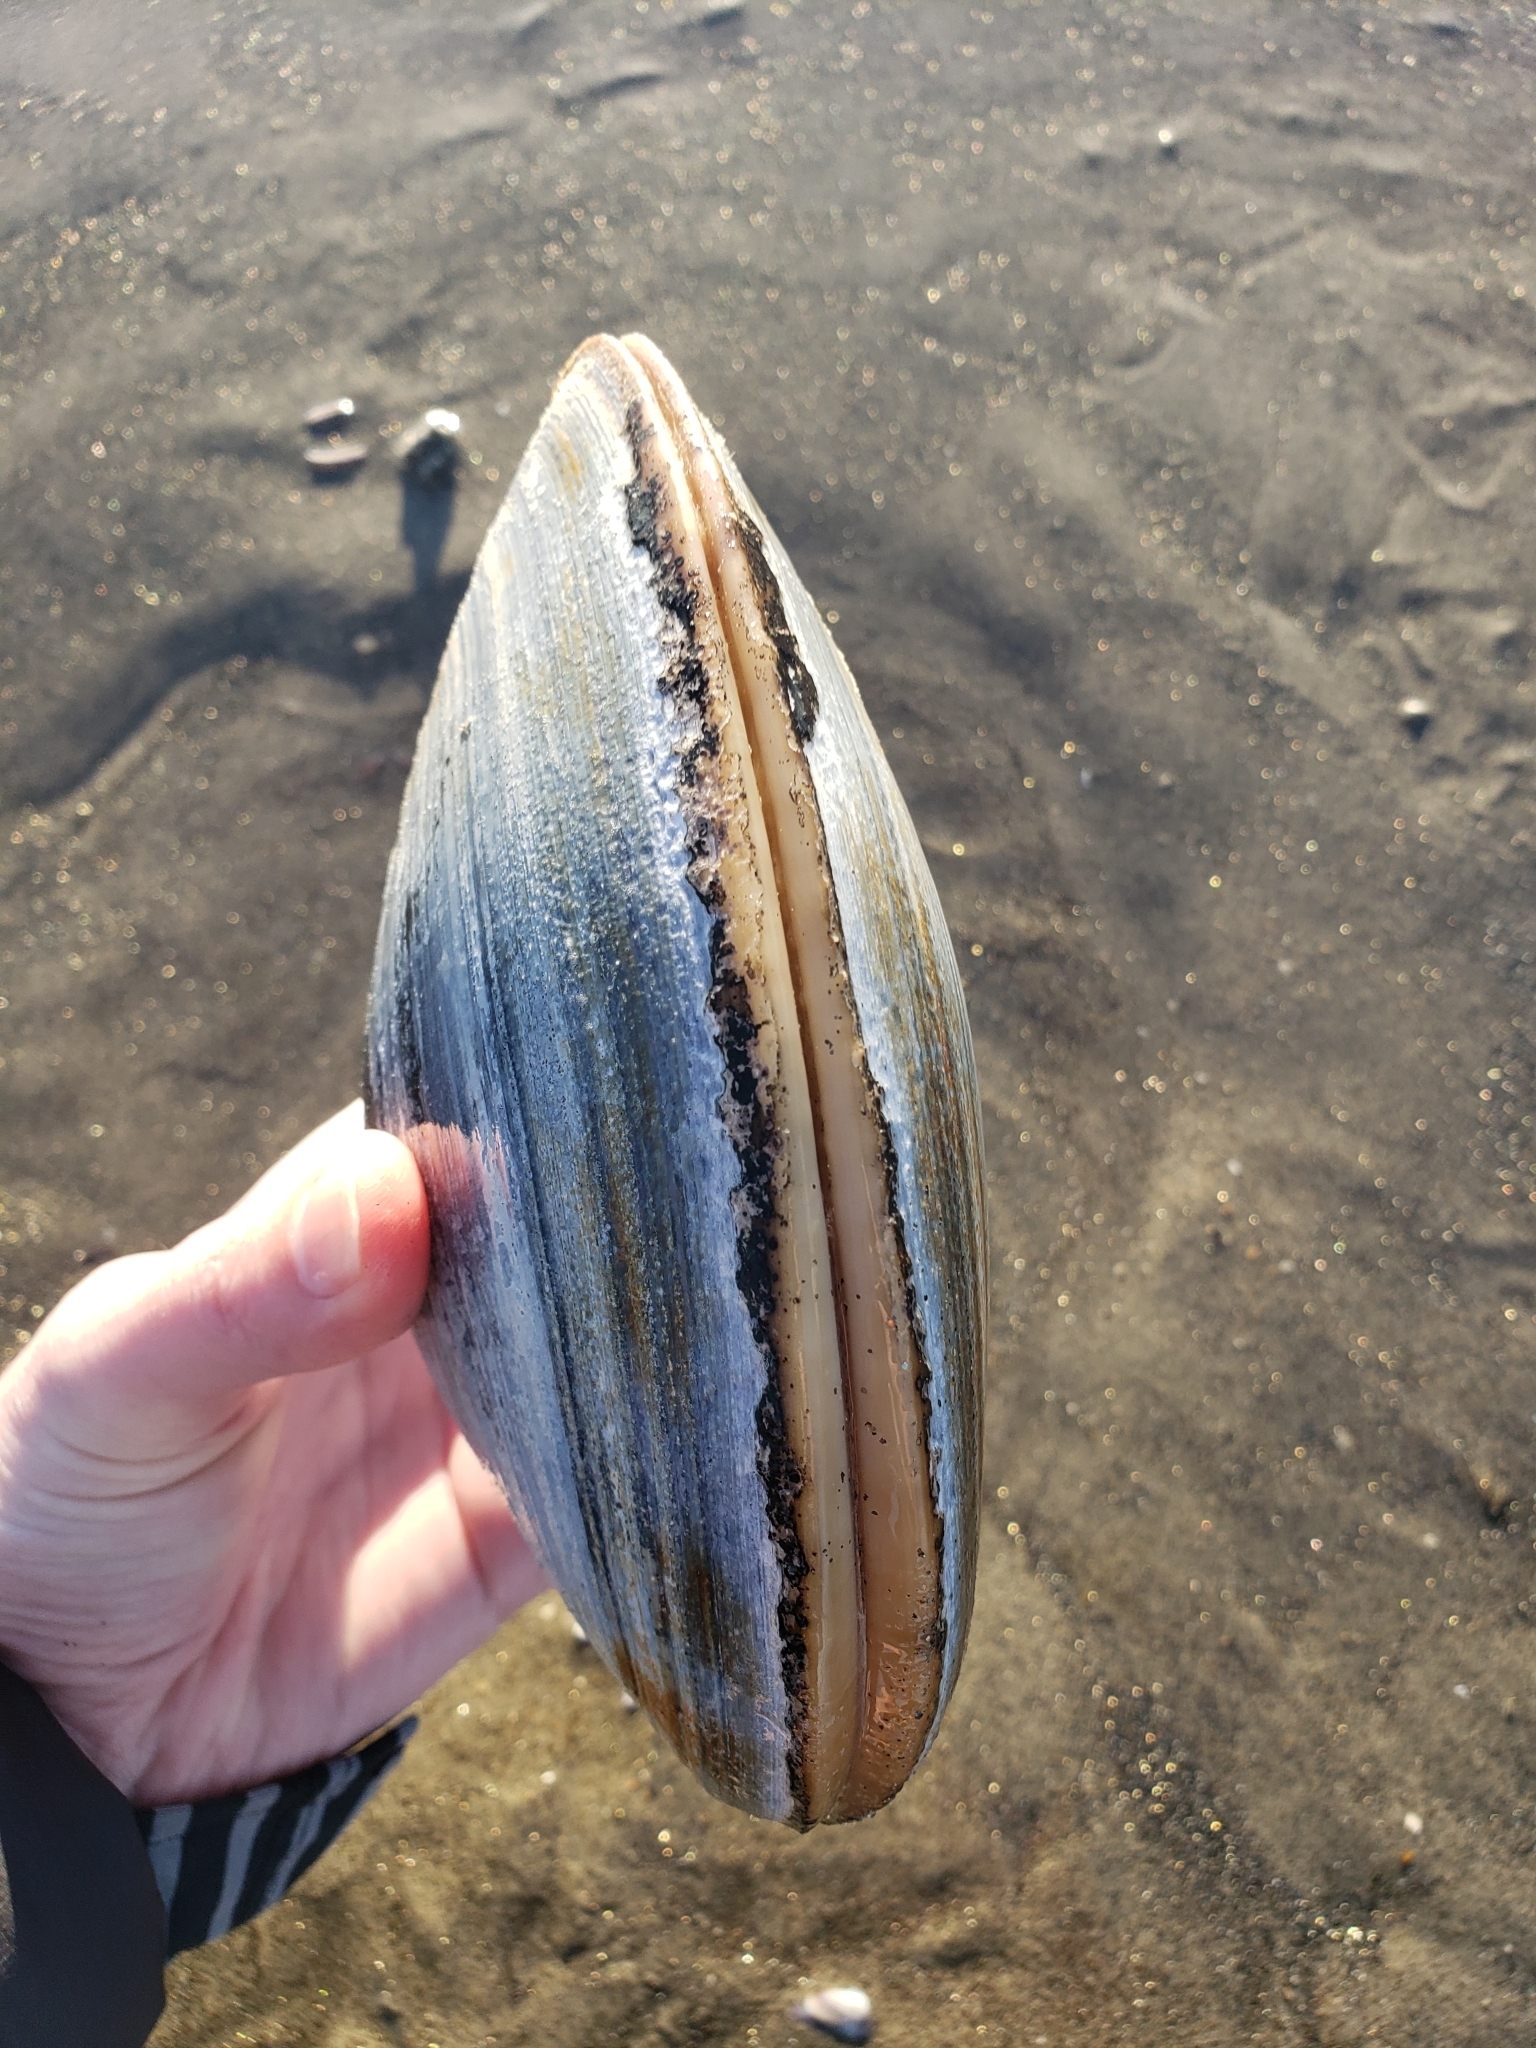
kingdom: Animalia
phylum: Mollusca
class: Bivalvia
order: Venerida
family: Veneridae
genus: Tivela
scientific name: Tivela stultorum
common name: Pismo clam
